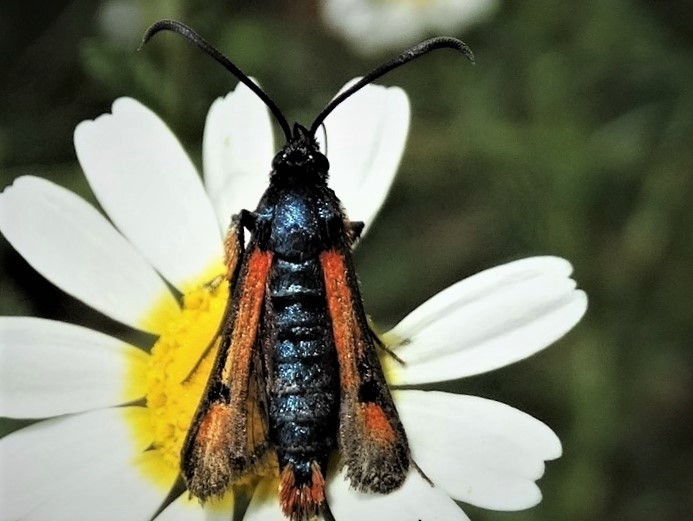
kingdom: Animalia
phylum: Arthropoda
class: Insecta
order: Lepidoptera
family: Sesiidae
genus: Pyropteron
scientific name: Pyropteron chrysidiforme
